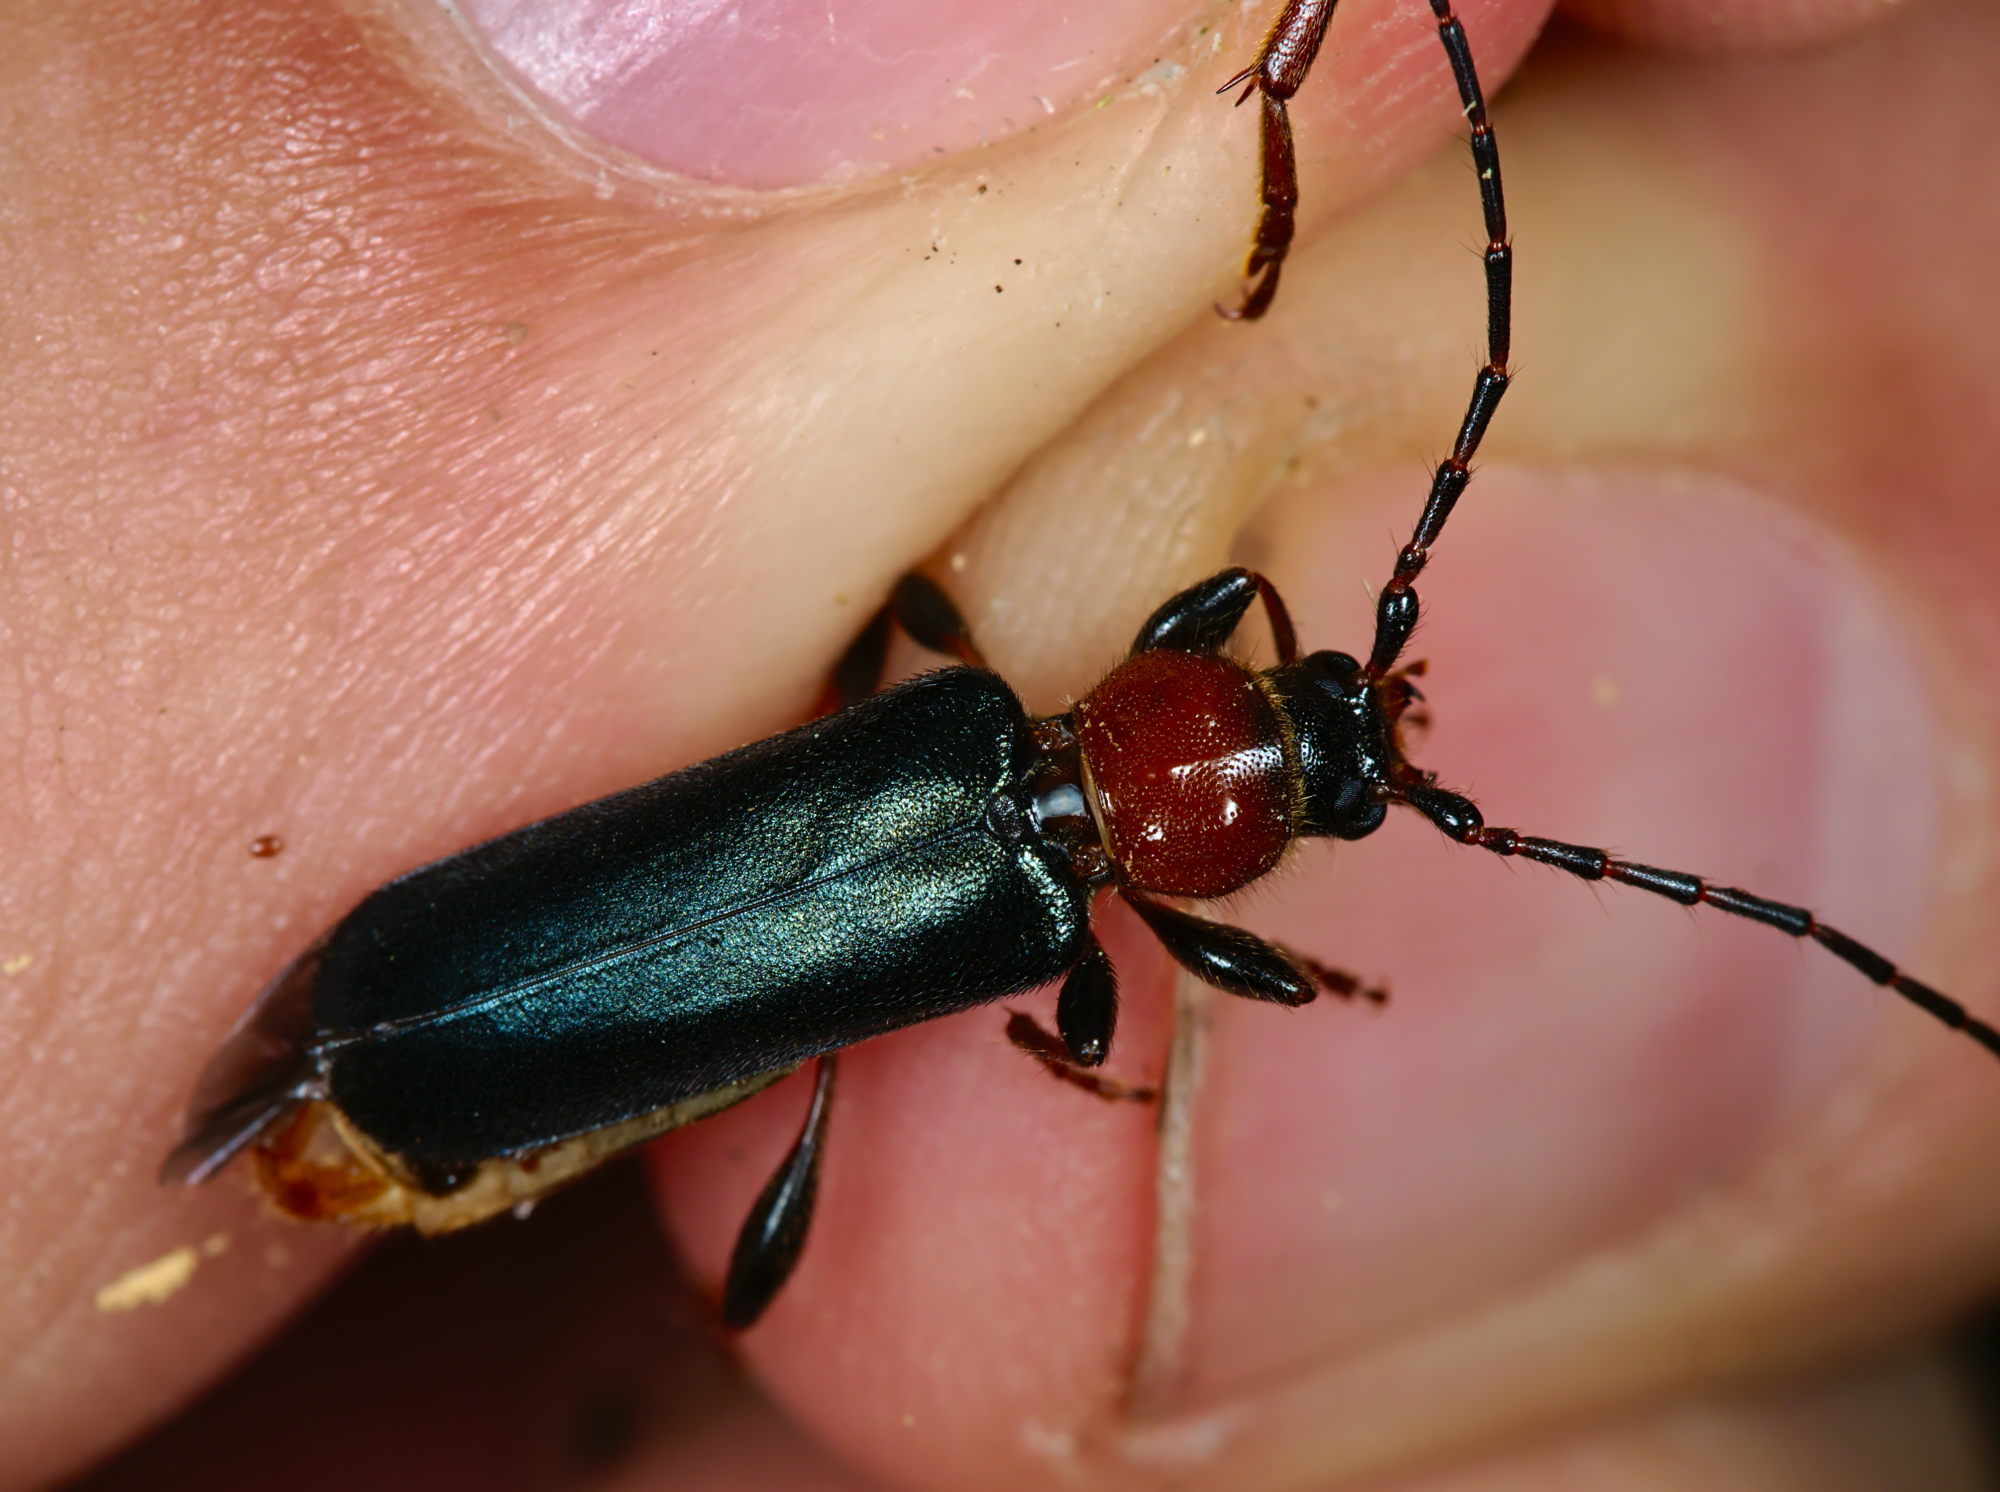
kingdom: Animalia
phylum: Arthropoda
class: Insecta
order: Coleoptera
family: Cerambycidae
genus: Phymatodes
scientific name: Phymatodes testaceus
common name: Long-horned beetle
